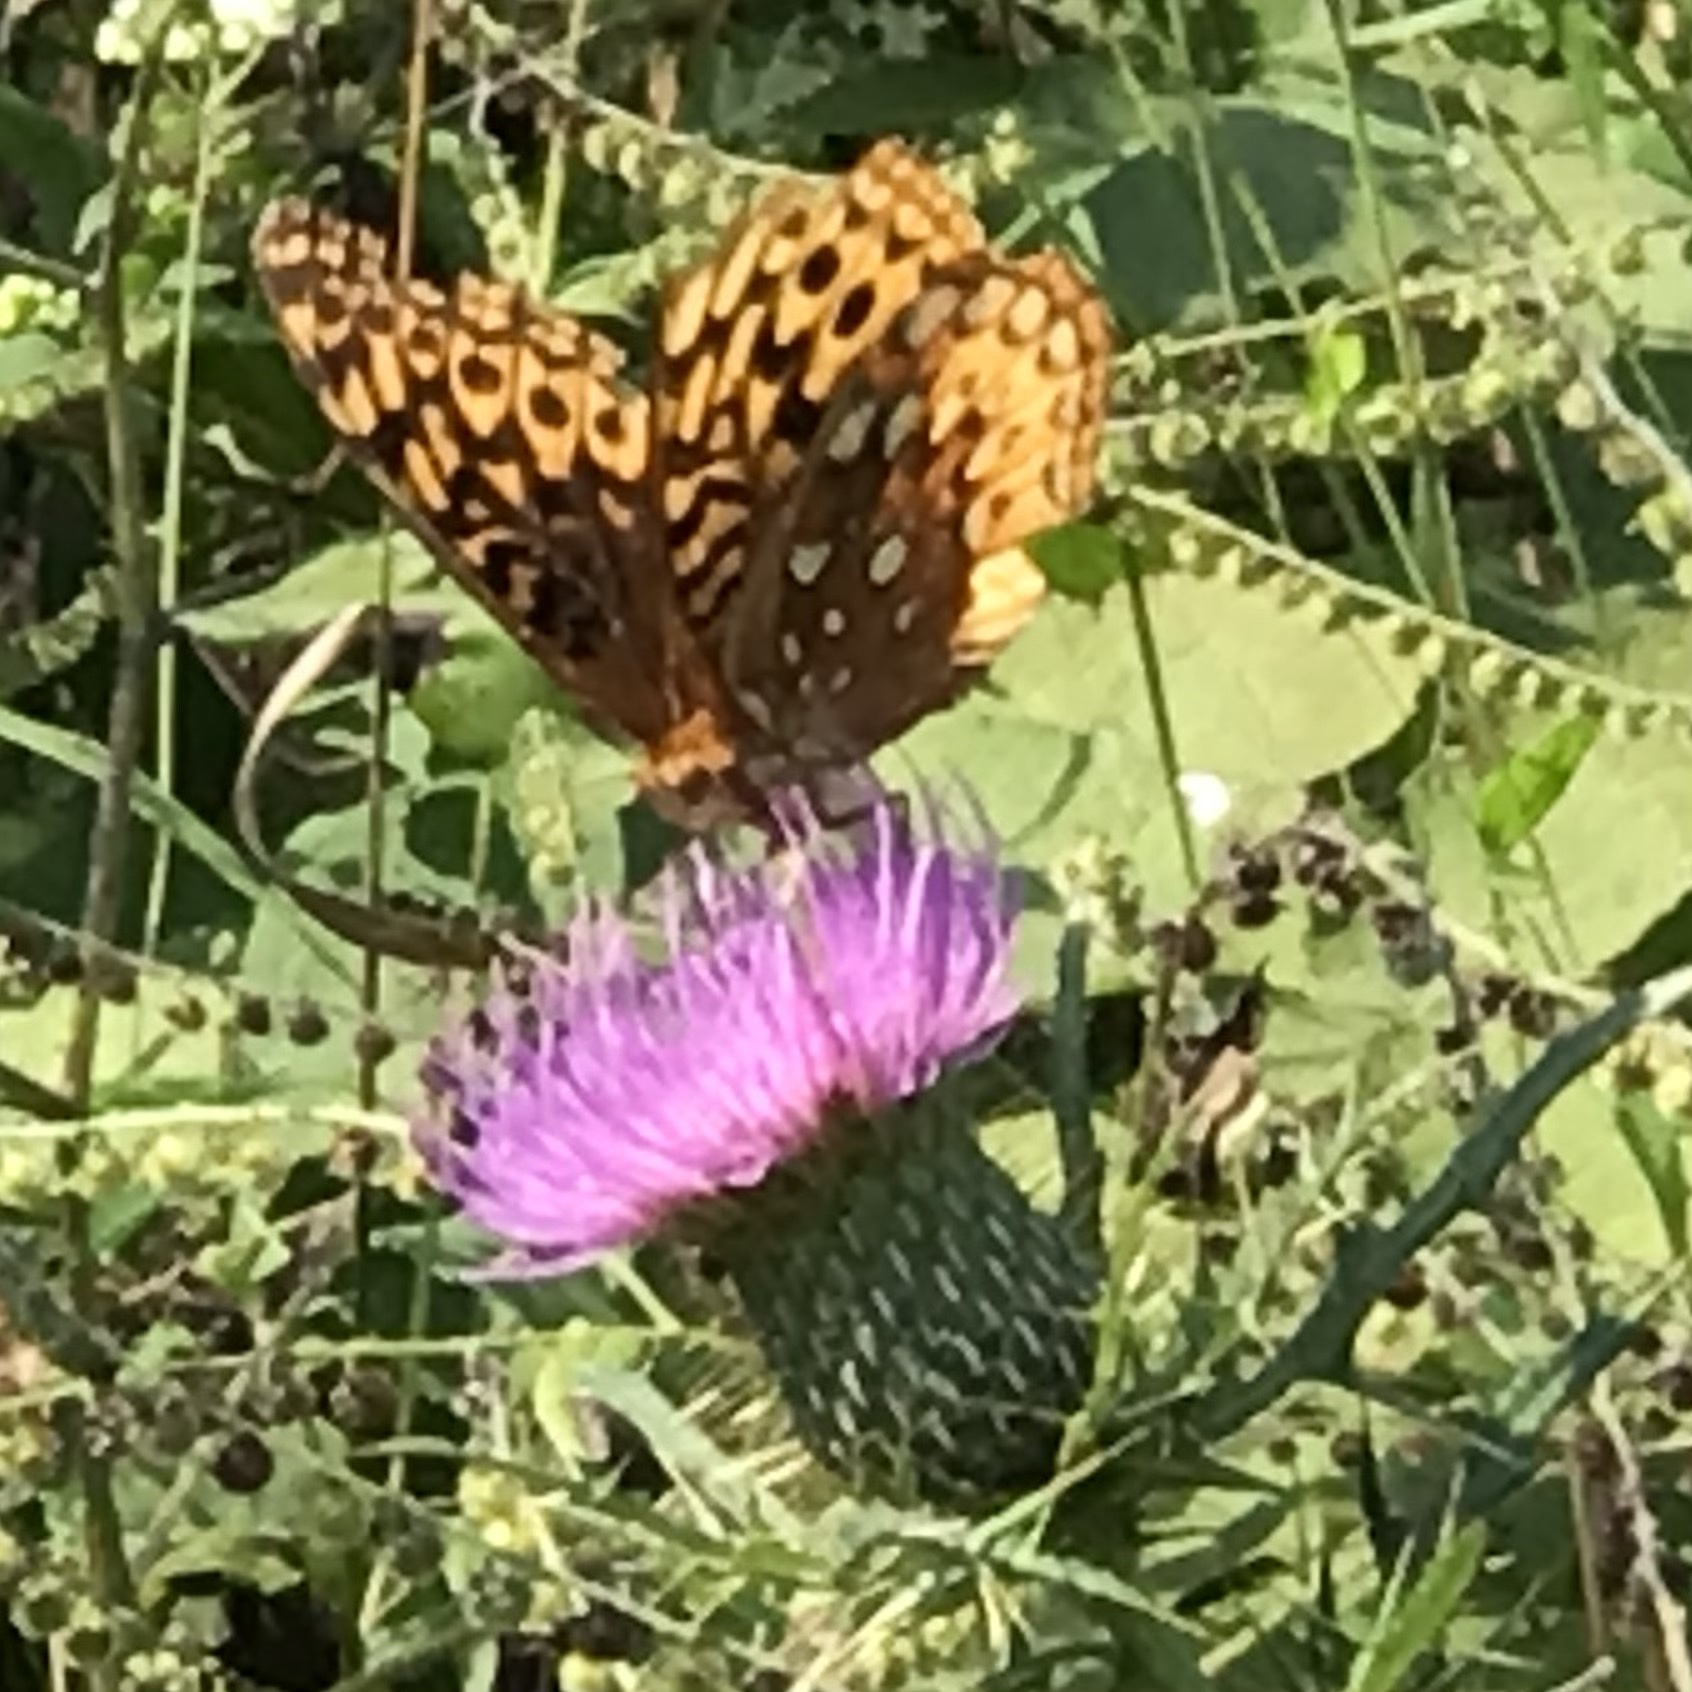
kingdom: Animalia
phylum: Arthropoda
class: Insecta
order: Lepidoptera
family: Nymphalidae
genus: Speyeria
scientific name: Speyeria cybele
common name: Great spangled fritillary
